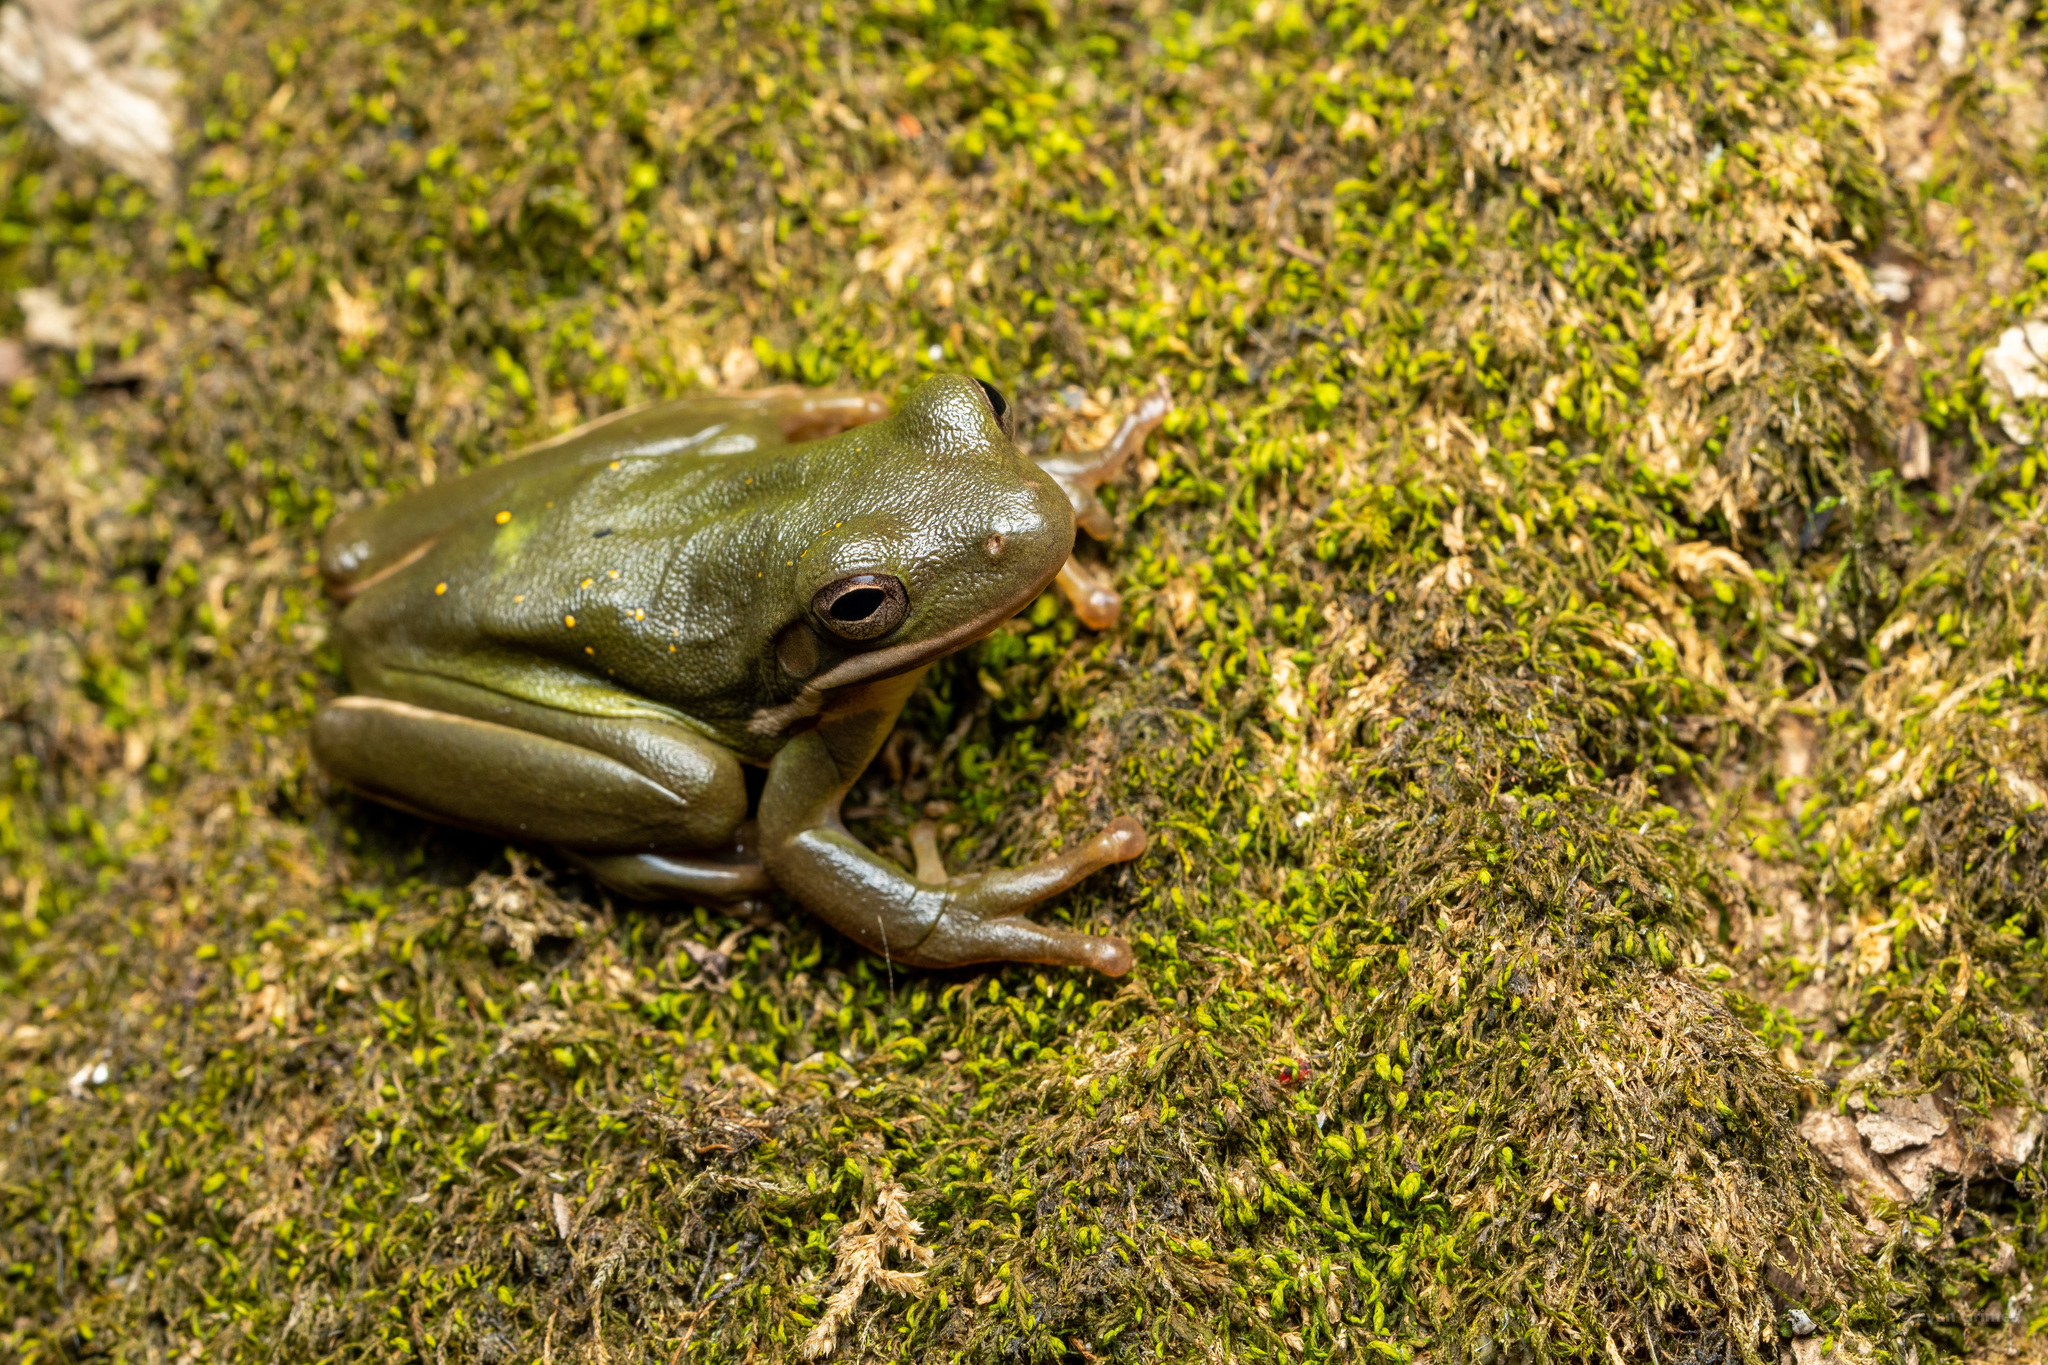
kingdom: Animalia
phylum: Chordata
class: Amphibia
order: Anura
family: Hylidae
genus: Dryophytes
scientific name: Dryophytes cinereus
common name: Green treefrog
